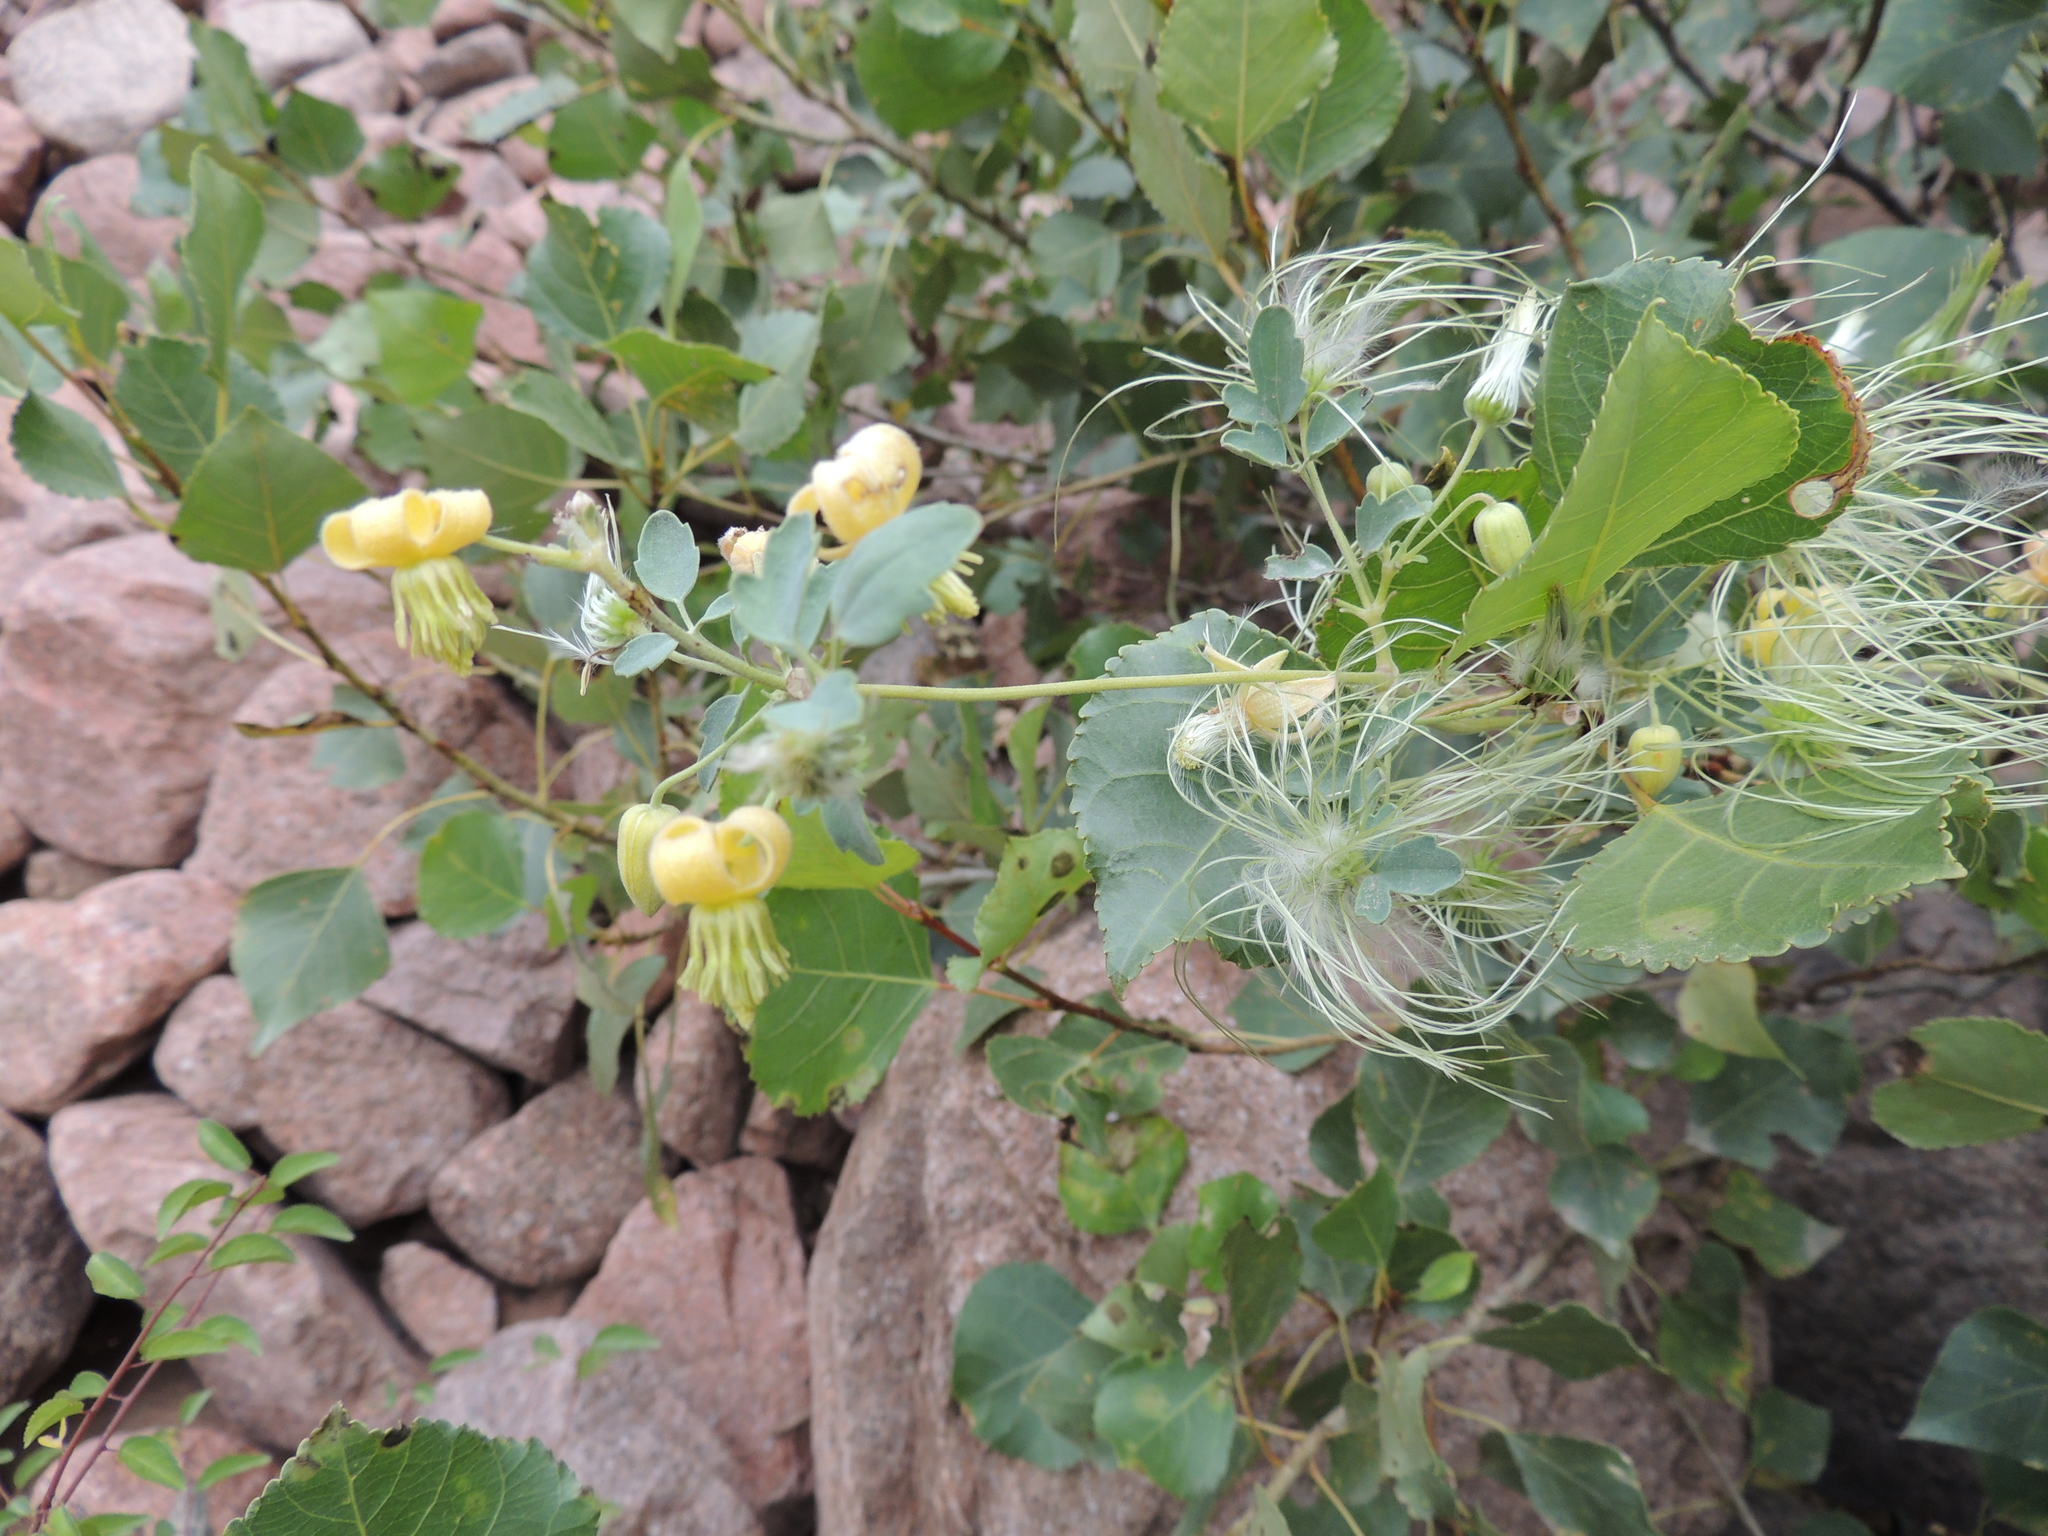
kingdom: Plantae
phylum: Tracheophyta
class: Magnoliopsida
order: Ranunculales
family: Ranunculaceae
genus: Clematis
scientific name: Clematis orientalis
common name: Oriental virgin's-bower
